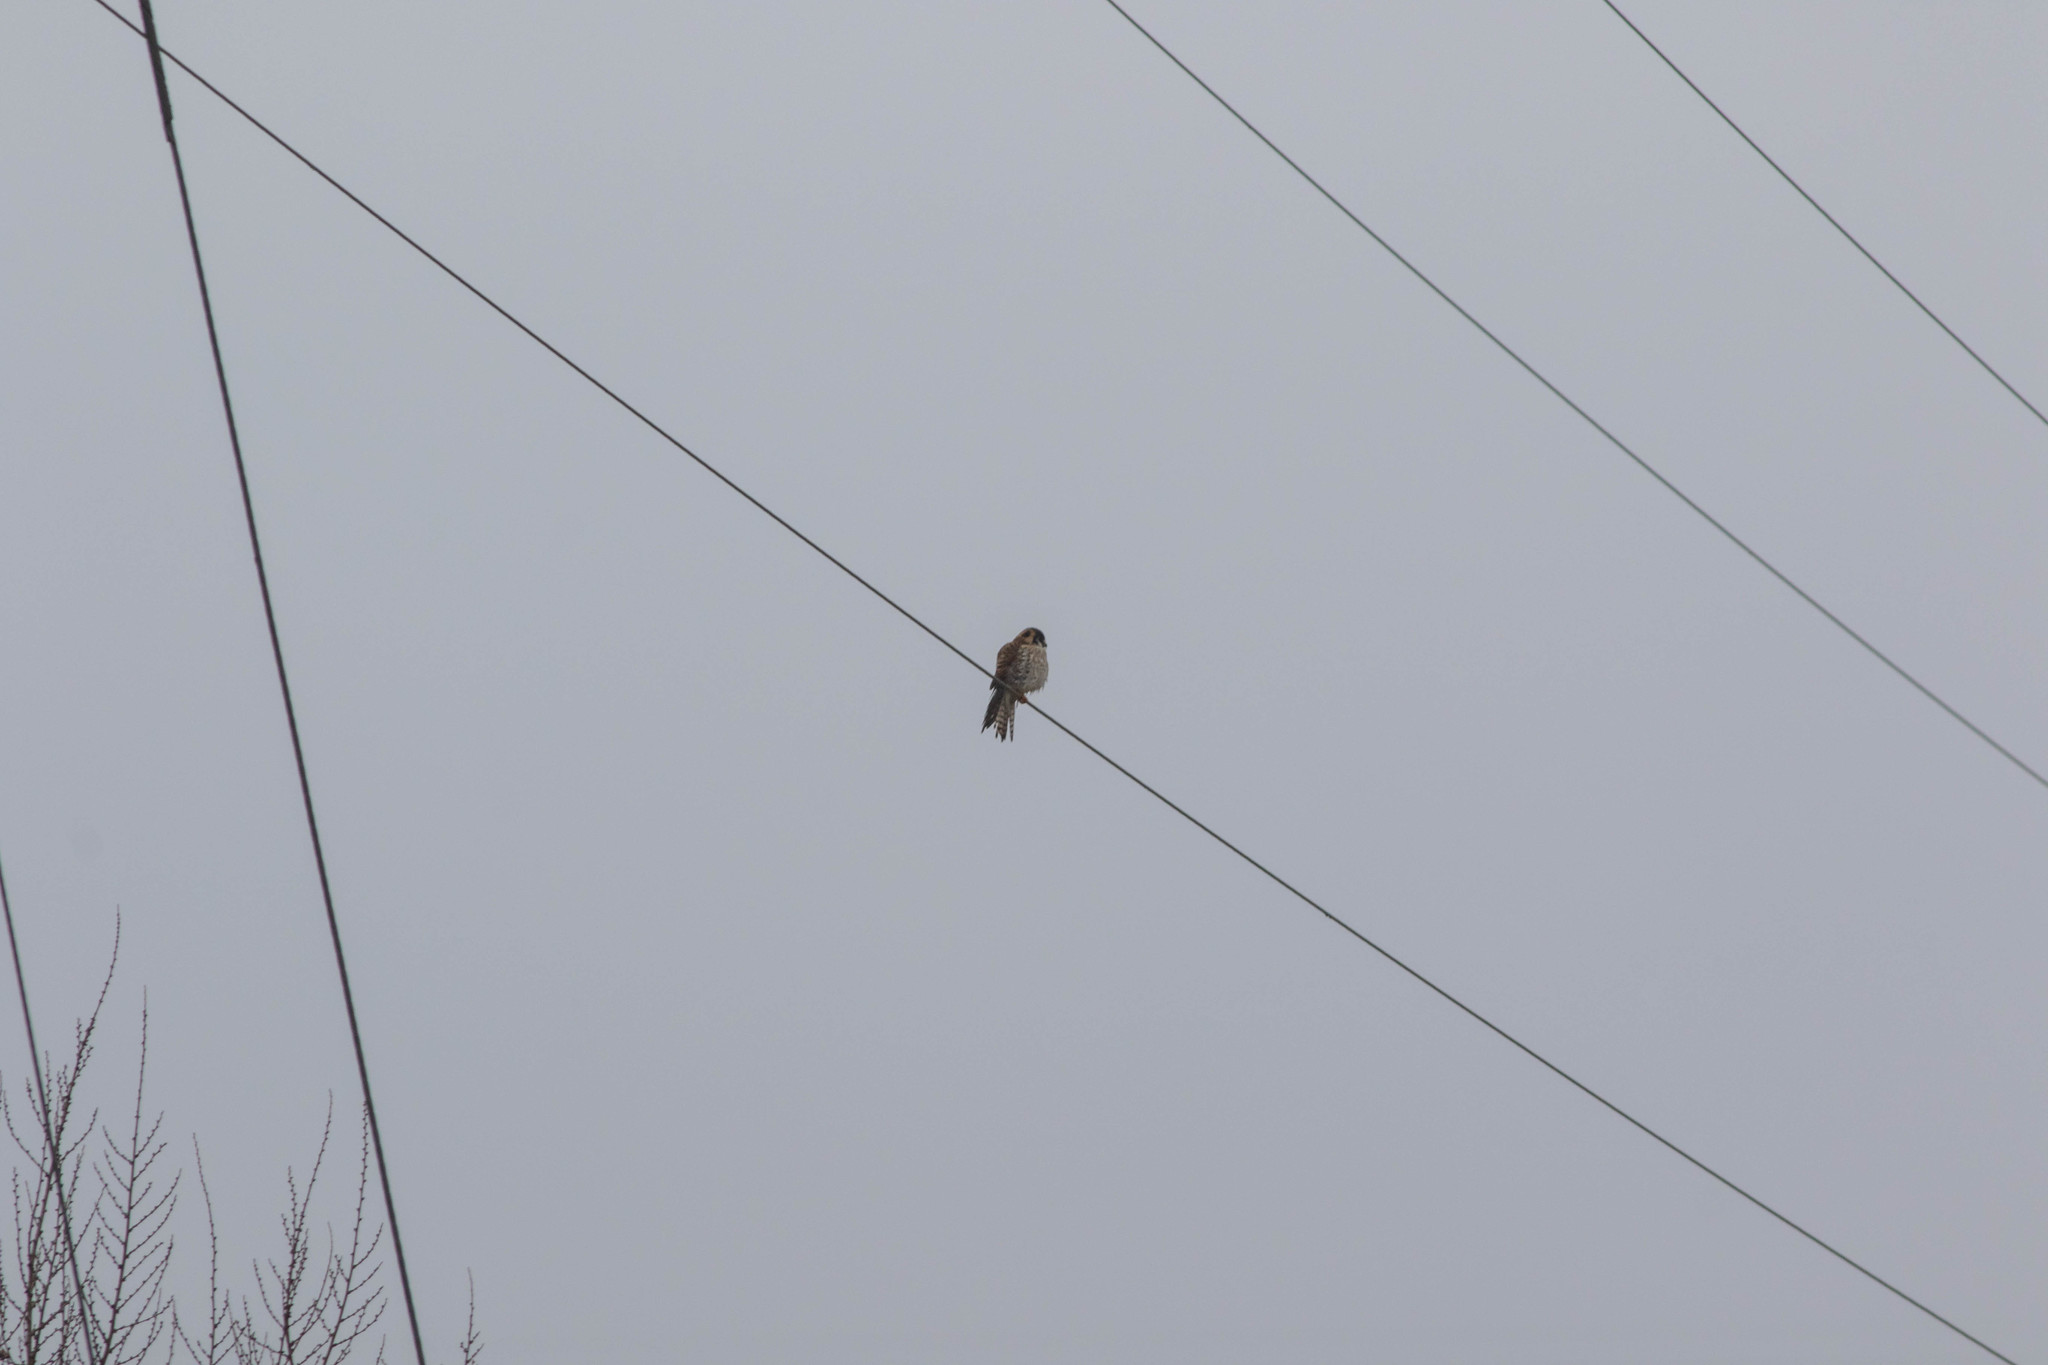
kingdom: Animalia
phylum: Chordata
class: Aves
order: Falconiformes
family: Falconidae
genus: Falco
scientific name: Falco sparverius
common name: American kestrel
